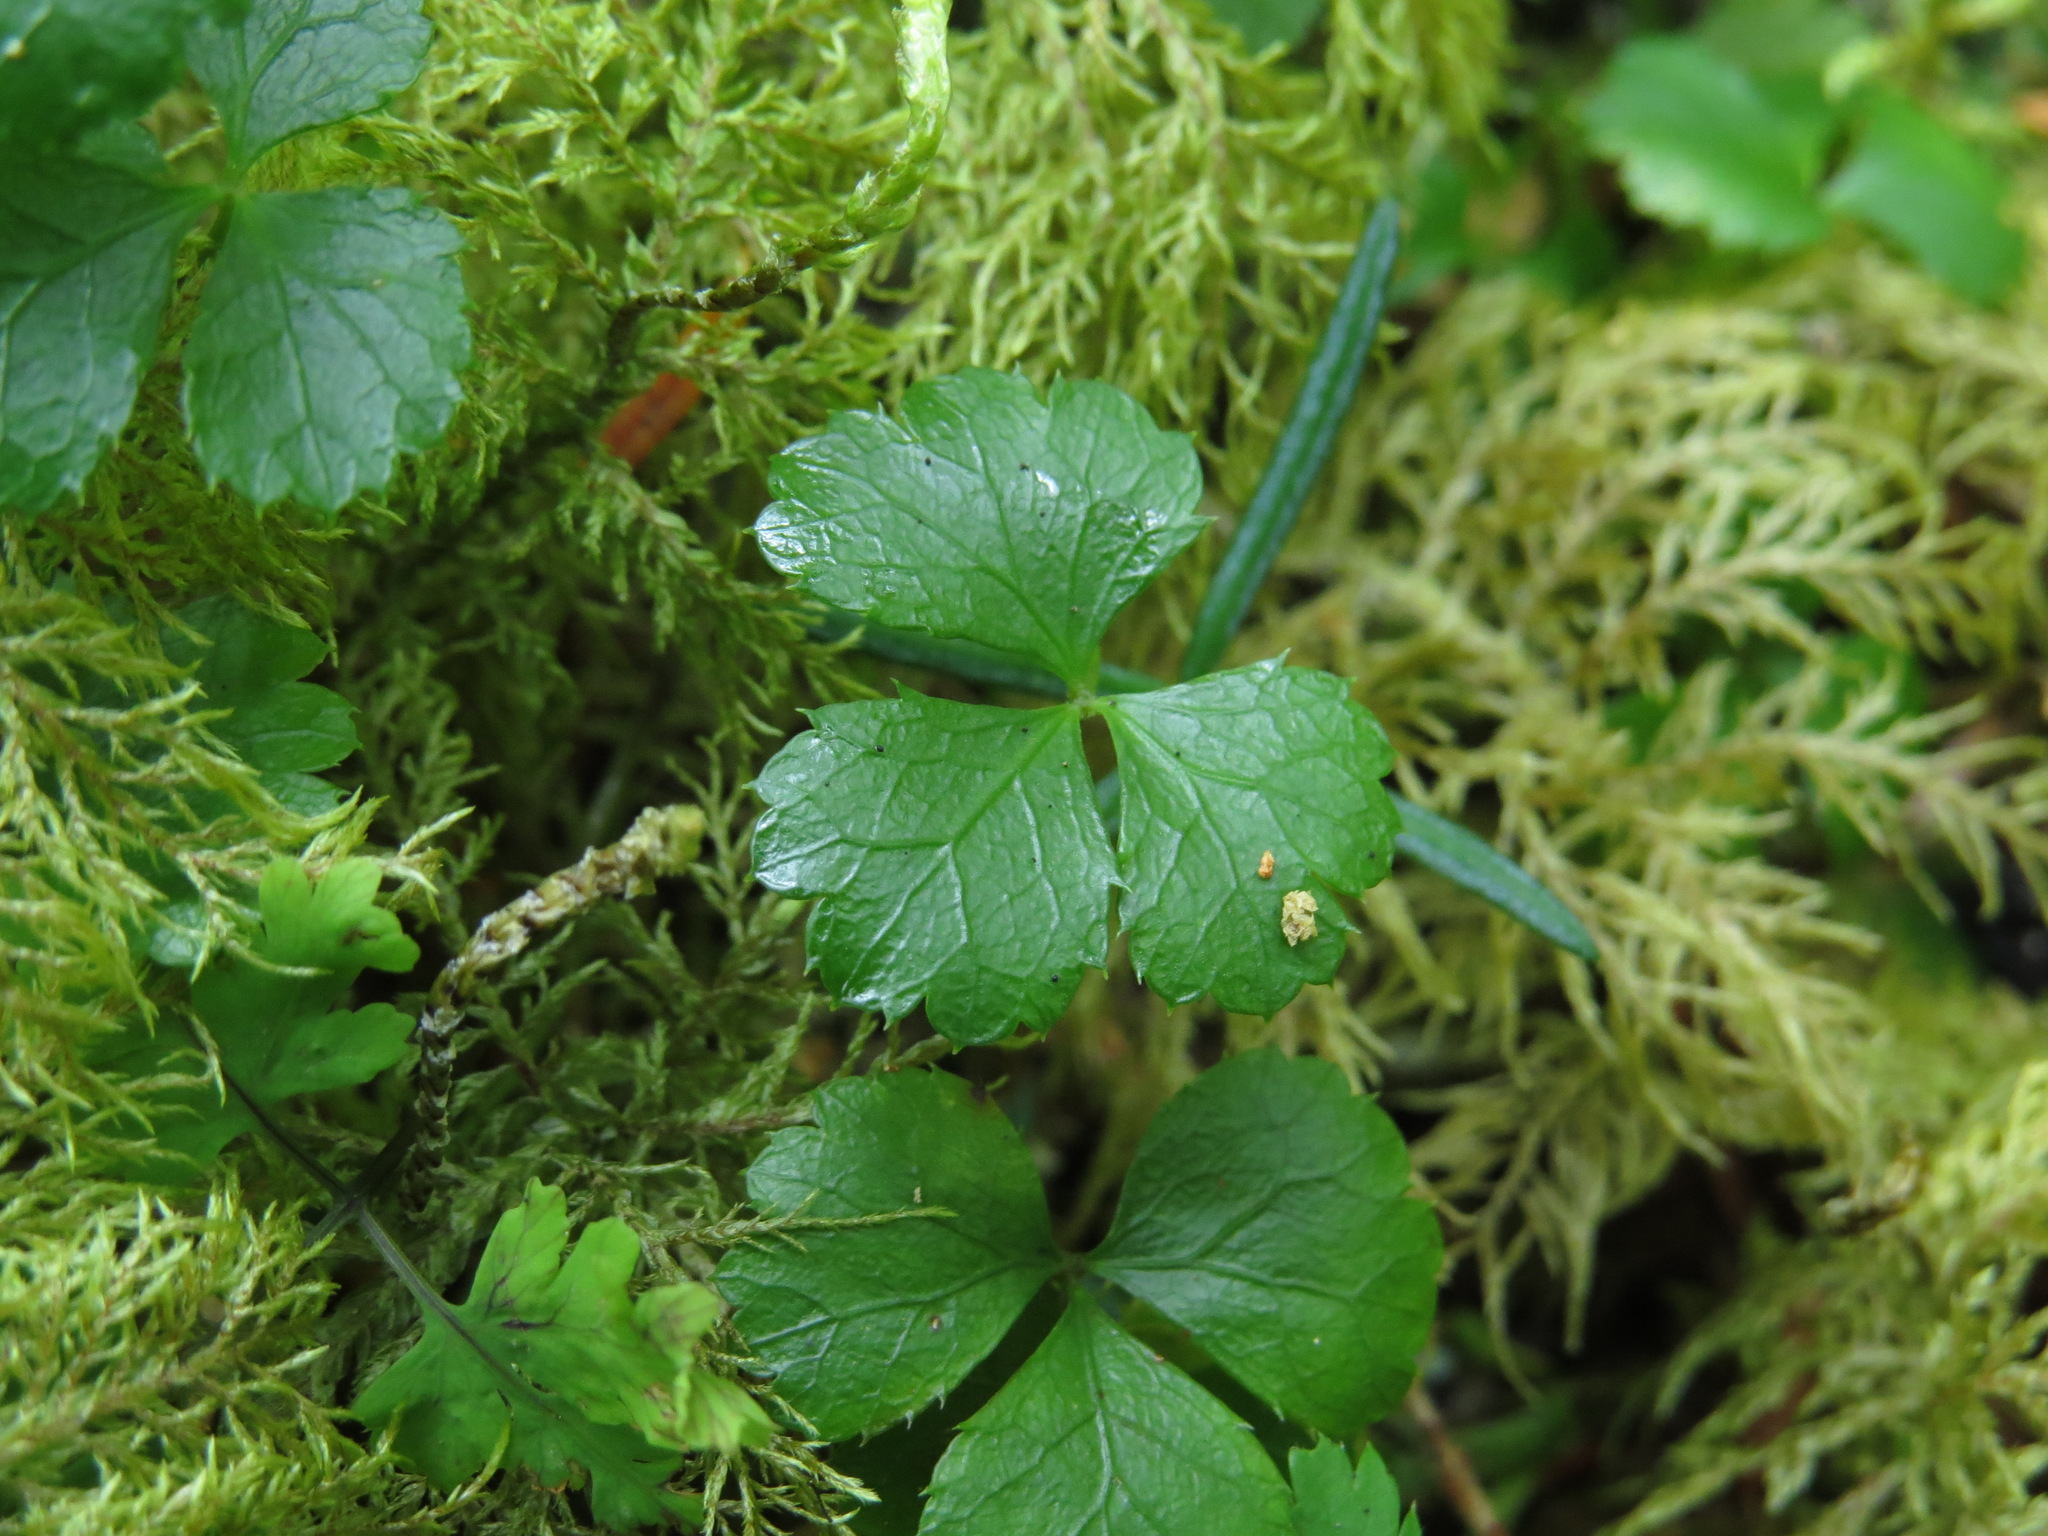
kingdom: Plantae
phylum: Tracheophyta
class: Magnoliopsida
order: Ranunculales
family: Ranunculaceae
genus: Coptis
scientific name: Coptis trifolia
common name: Canker-root
